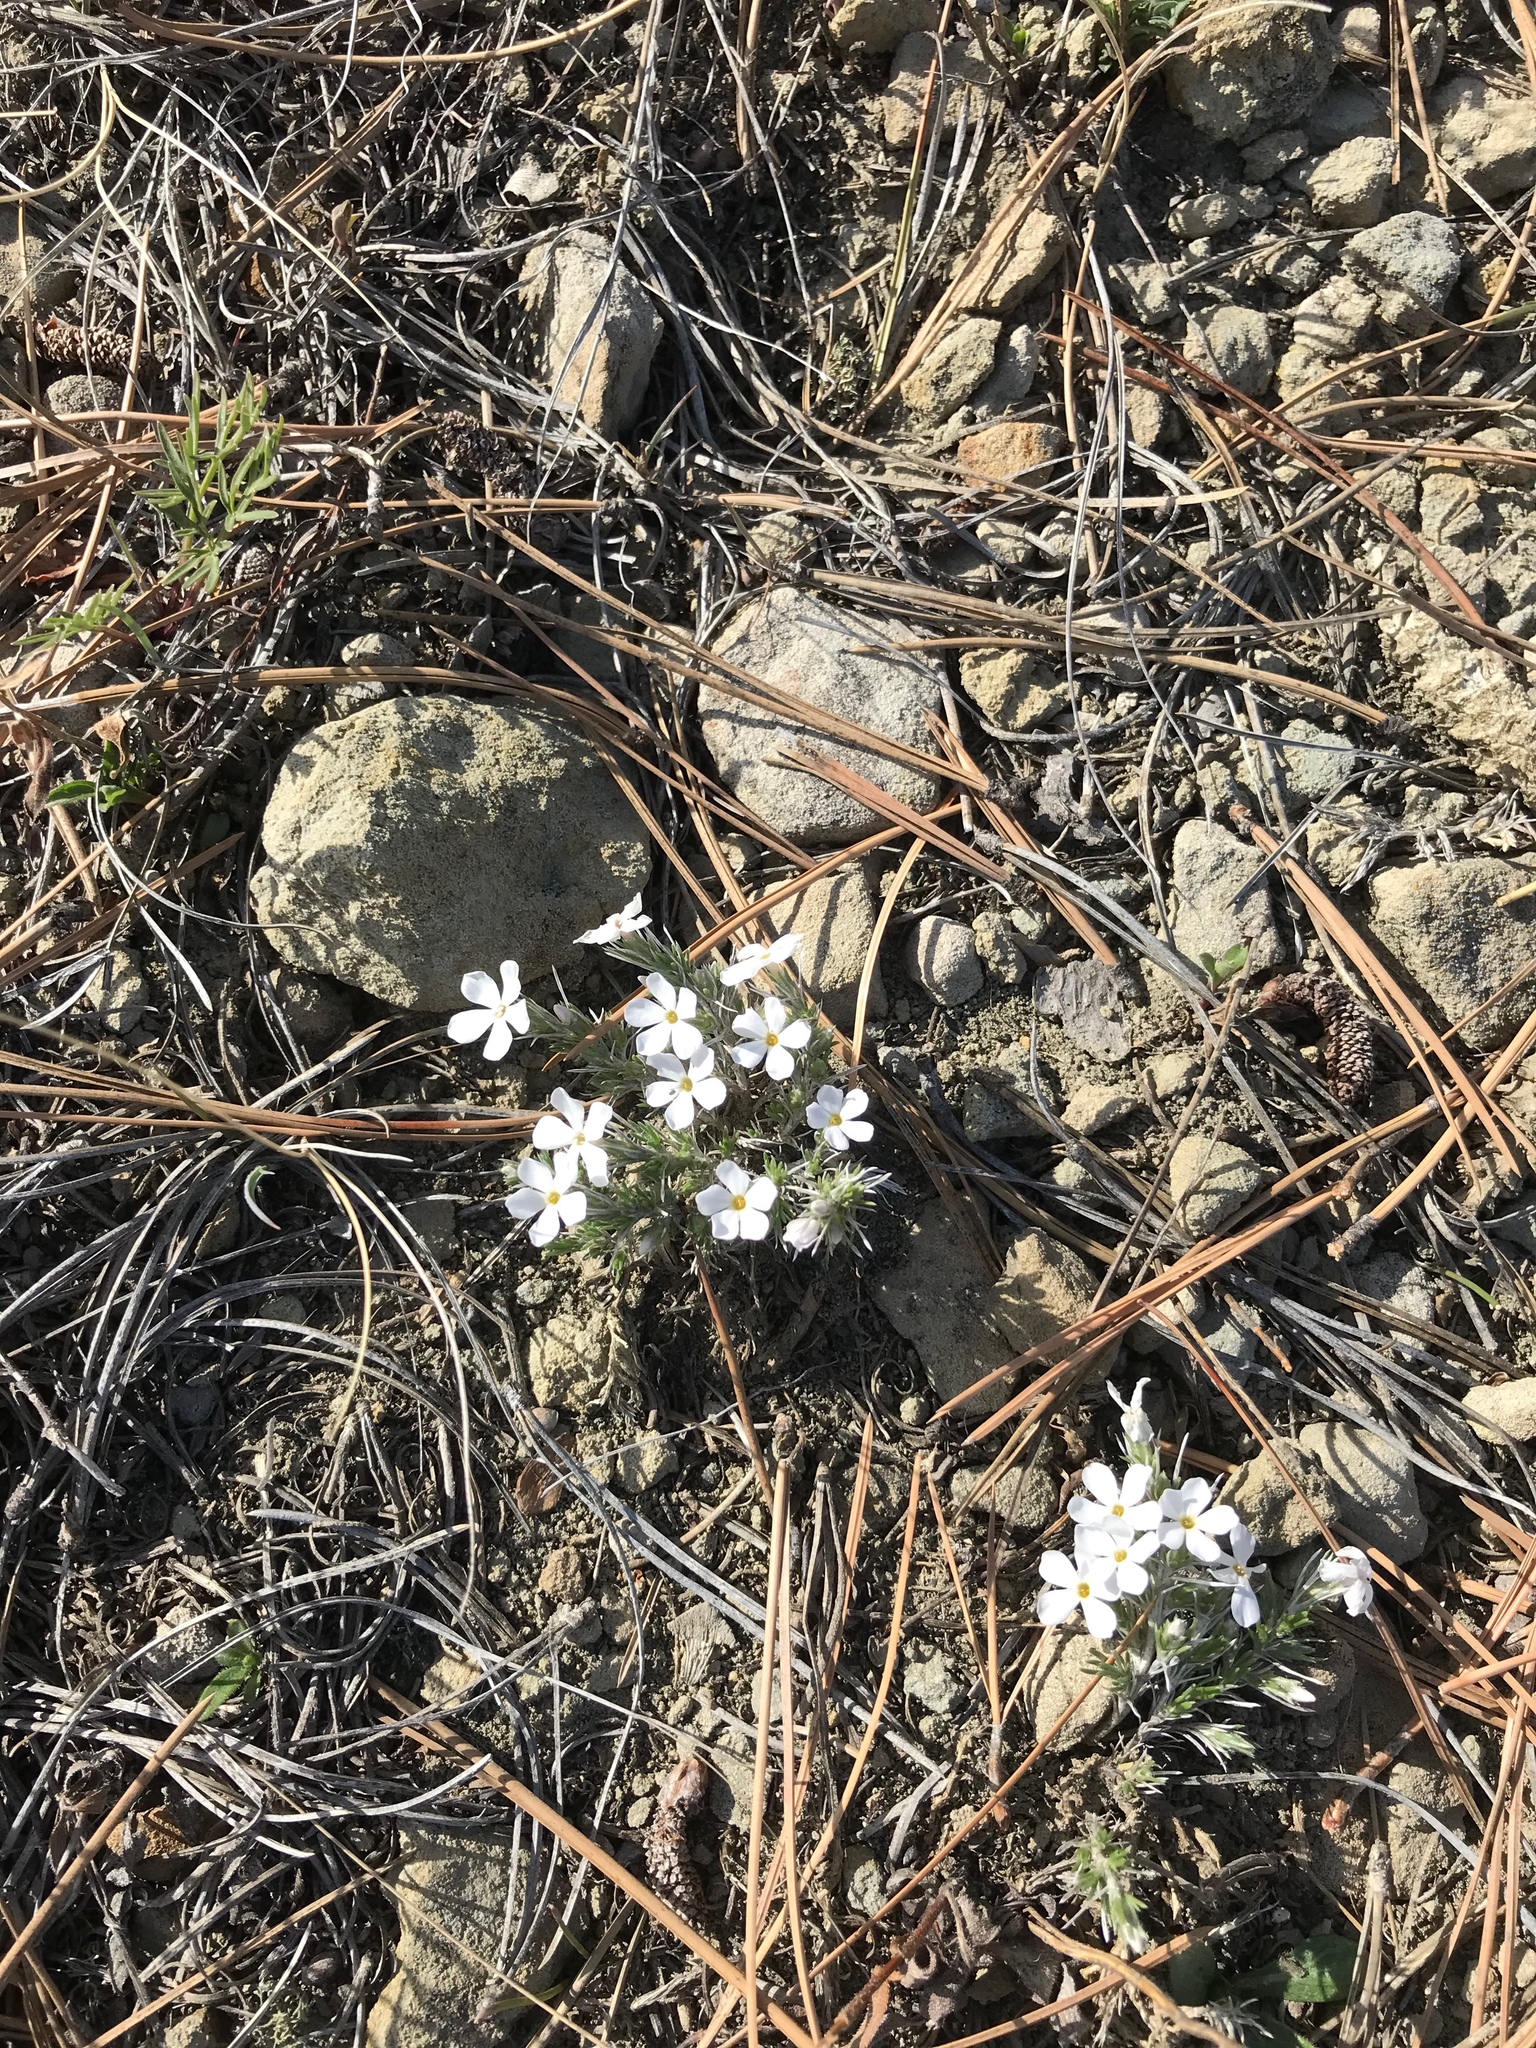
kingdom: Plantae
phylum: Tracheophyta
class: Magnoliopsida
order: Ericales
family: Polemoniaceae
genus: Phlox
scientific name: Phlox hoodii
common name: Moss phlox
